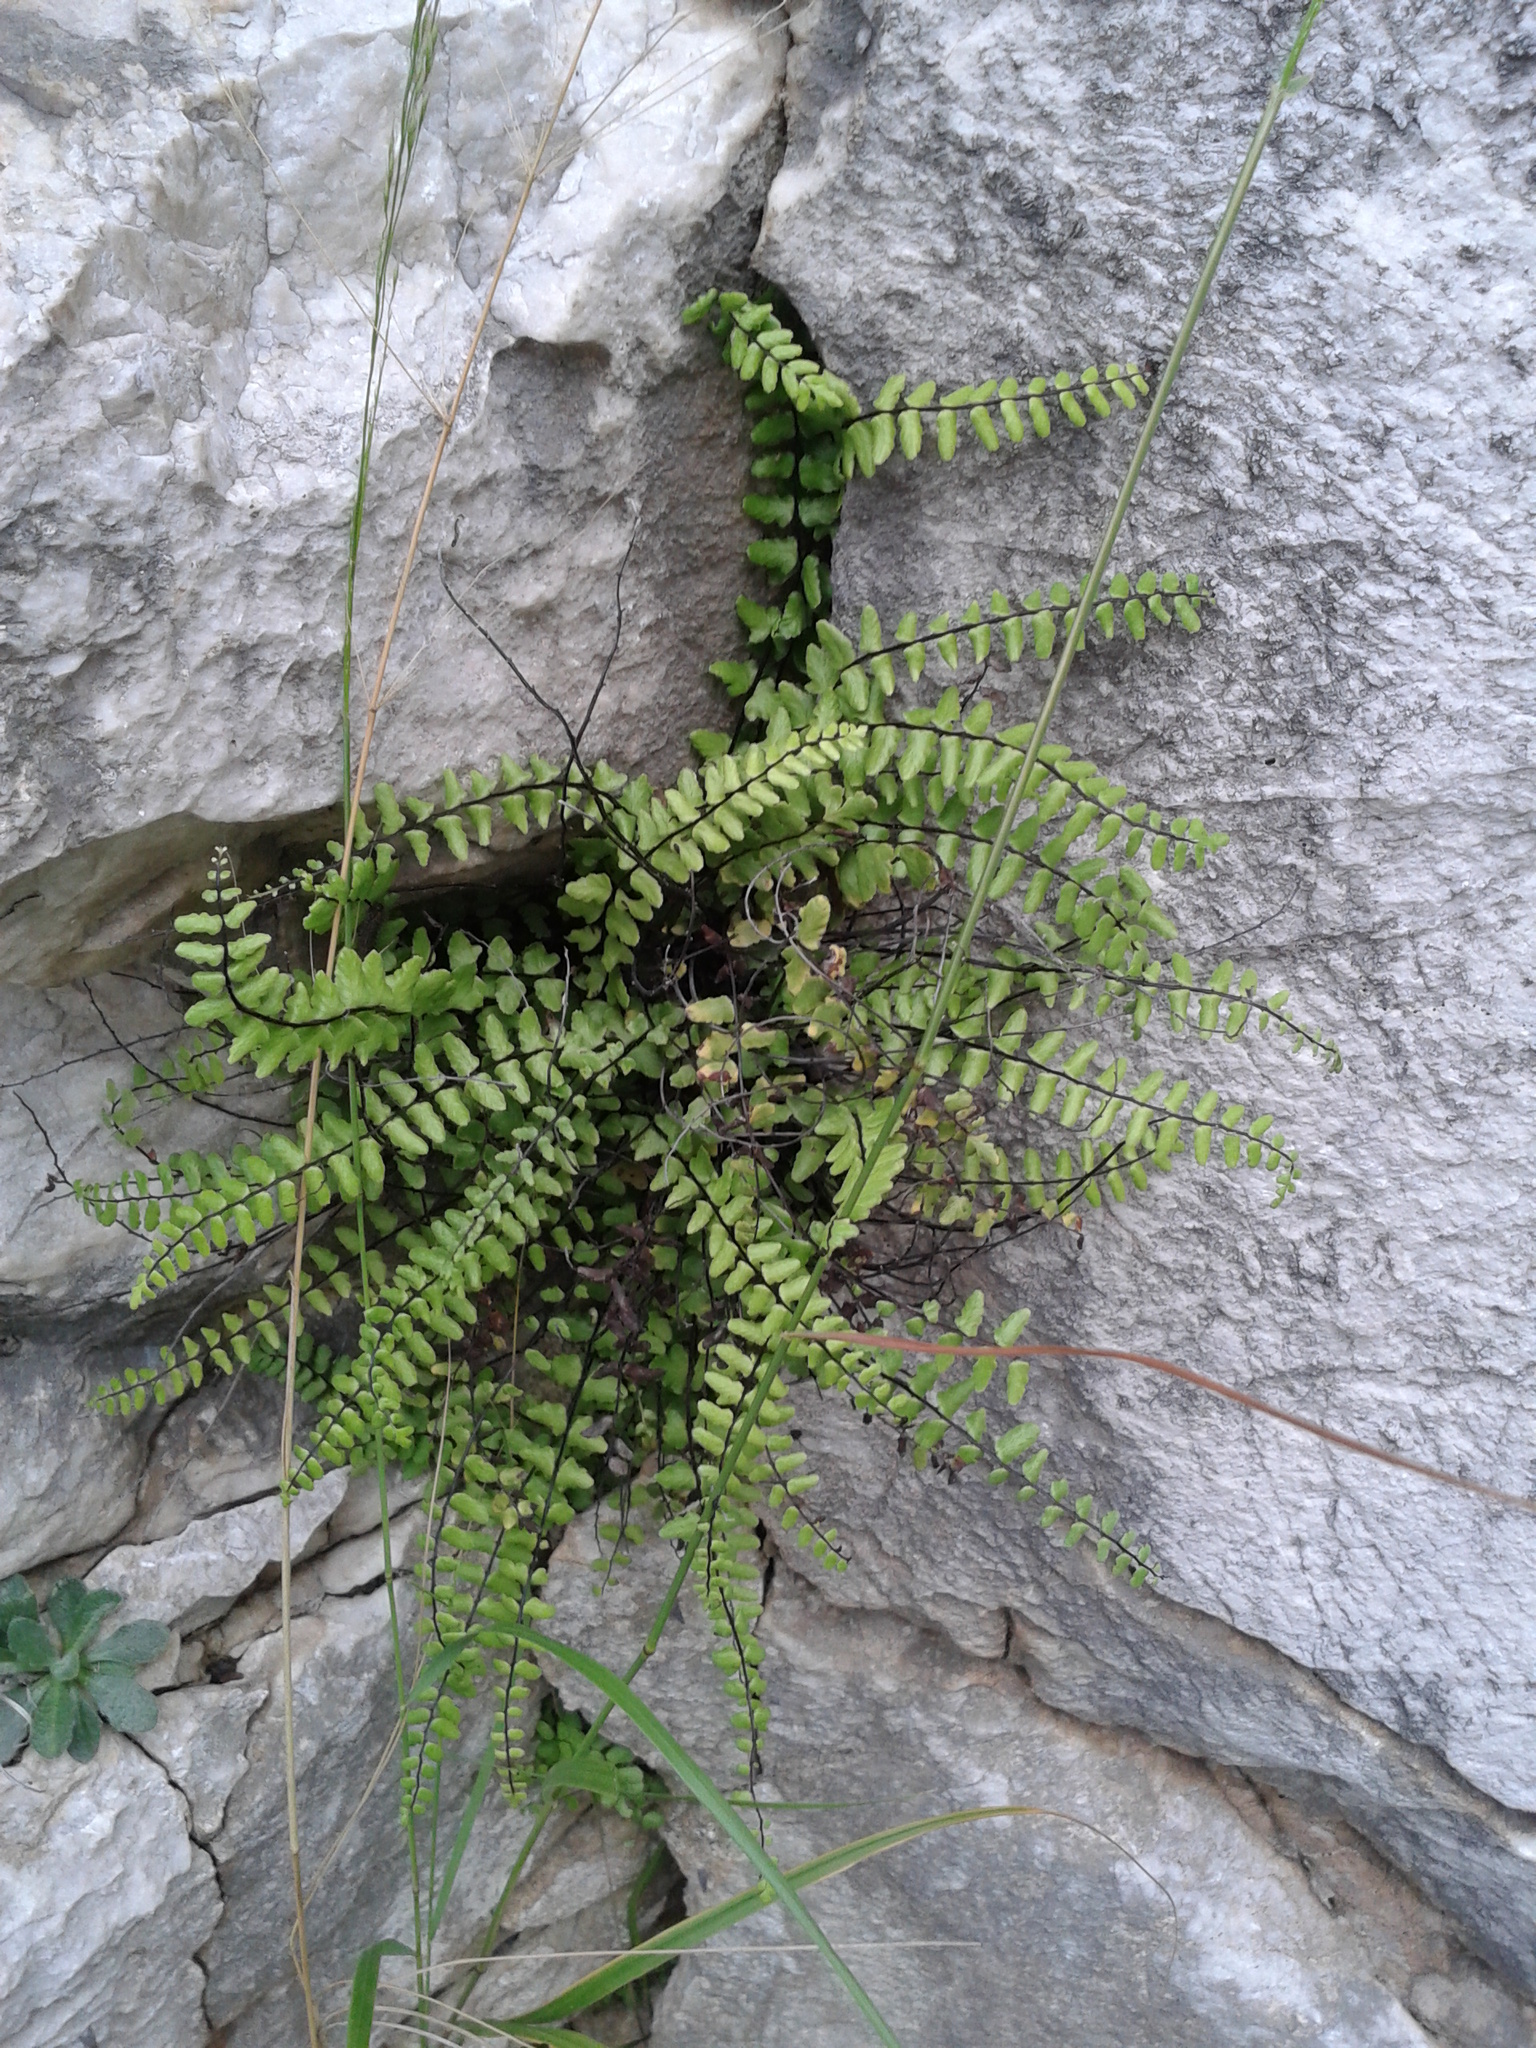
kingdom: Plantae
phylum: Tracheophyta
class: Polypodiopsida
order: Polypodiales
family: Aspleniaceae
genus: Asplenium
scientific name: Asplenium trichomanes
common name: Maidenhair spleenwort
